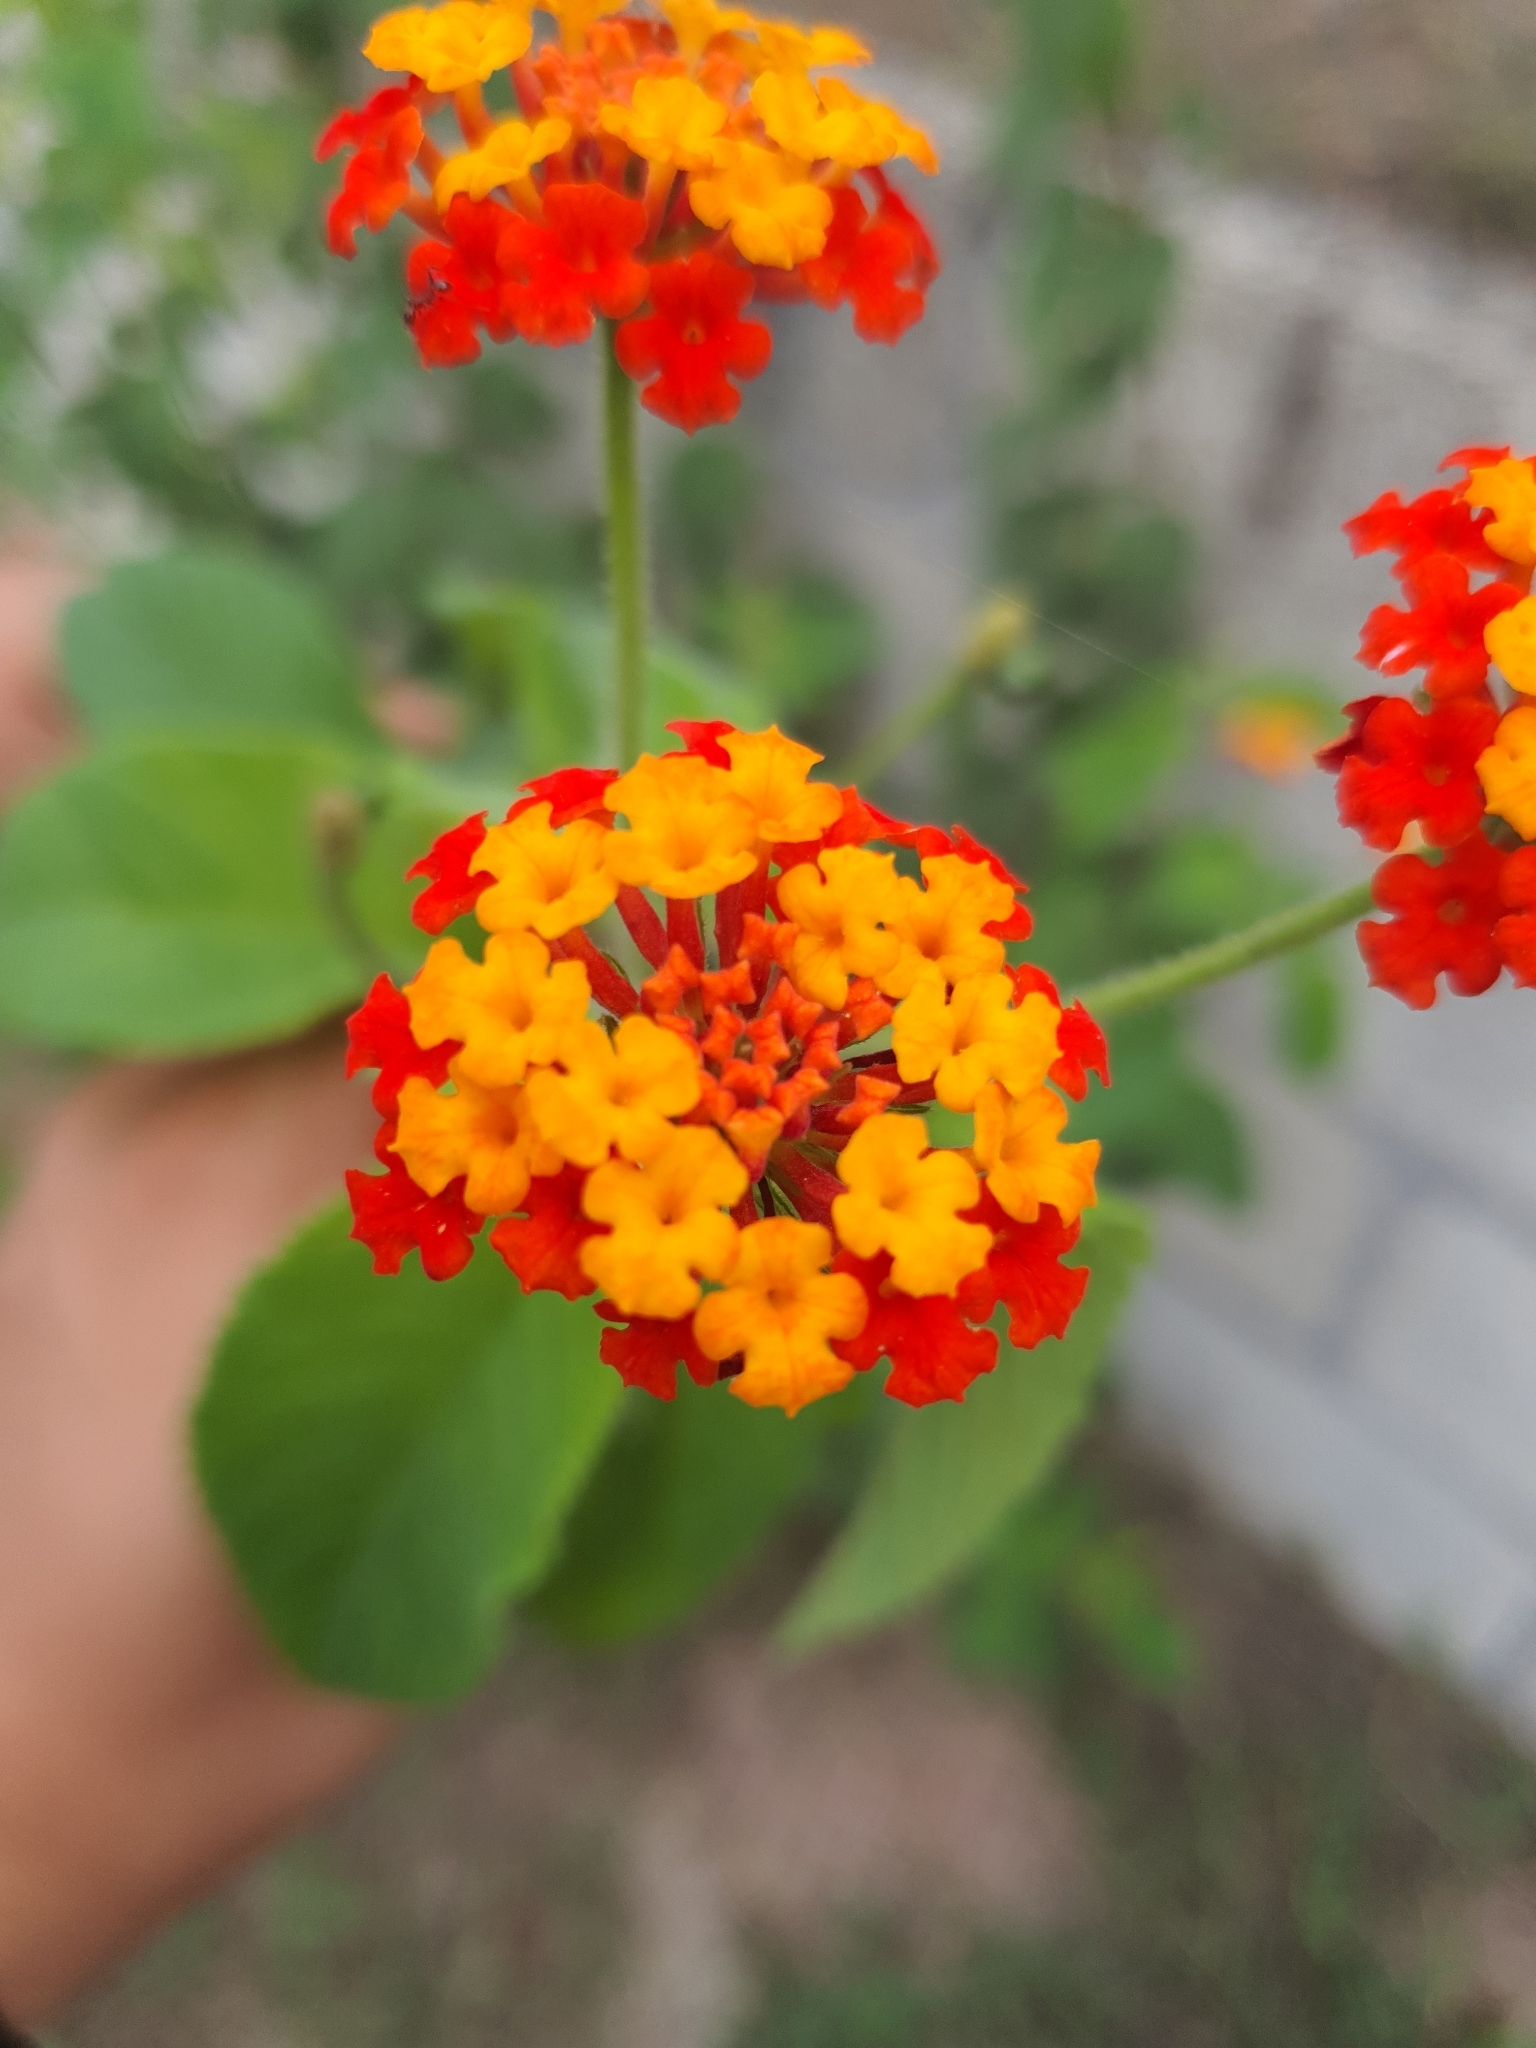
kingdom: Plantae
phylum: Tracheophyta
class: Magnoliopsida
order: Lamiales
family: Verbenaceae
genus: Lantana
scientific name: Lantana camara
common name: Lantana
